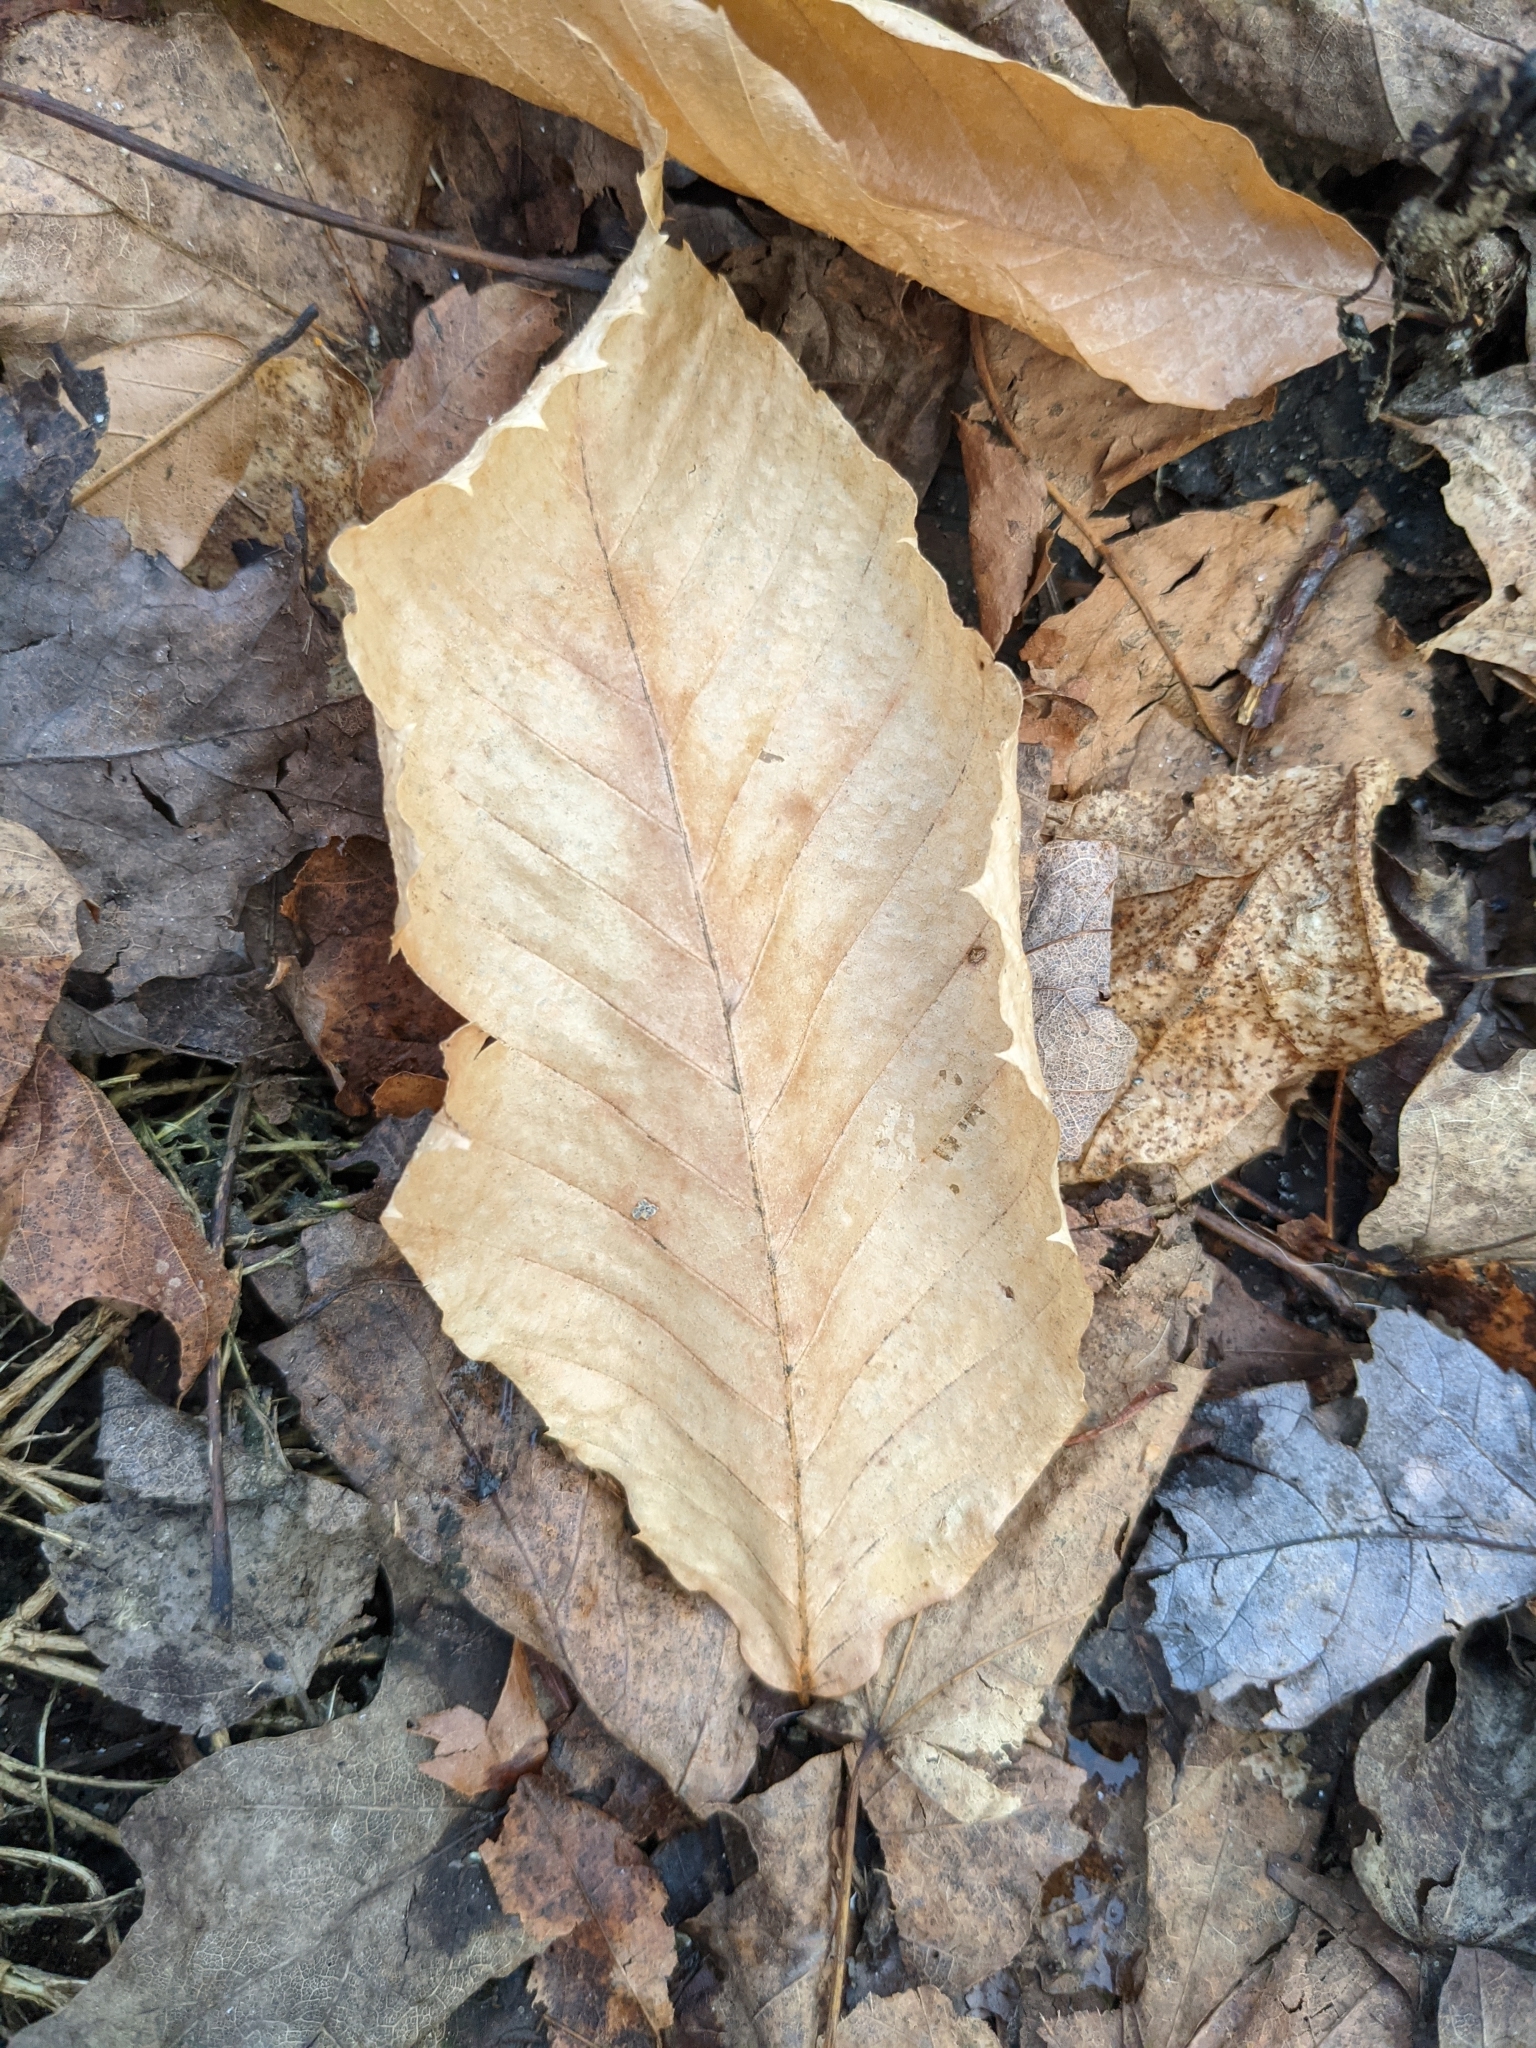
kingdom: Plantae
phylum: Tracheophyta
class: Magnoliopsida
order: Fagales
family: Fagaceae
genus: Fagus
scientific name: Fagus grandifolia
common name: American beech
